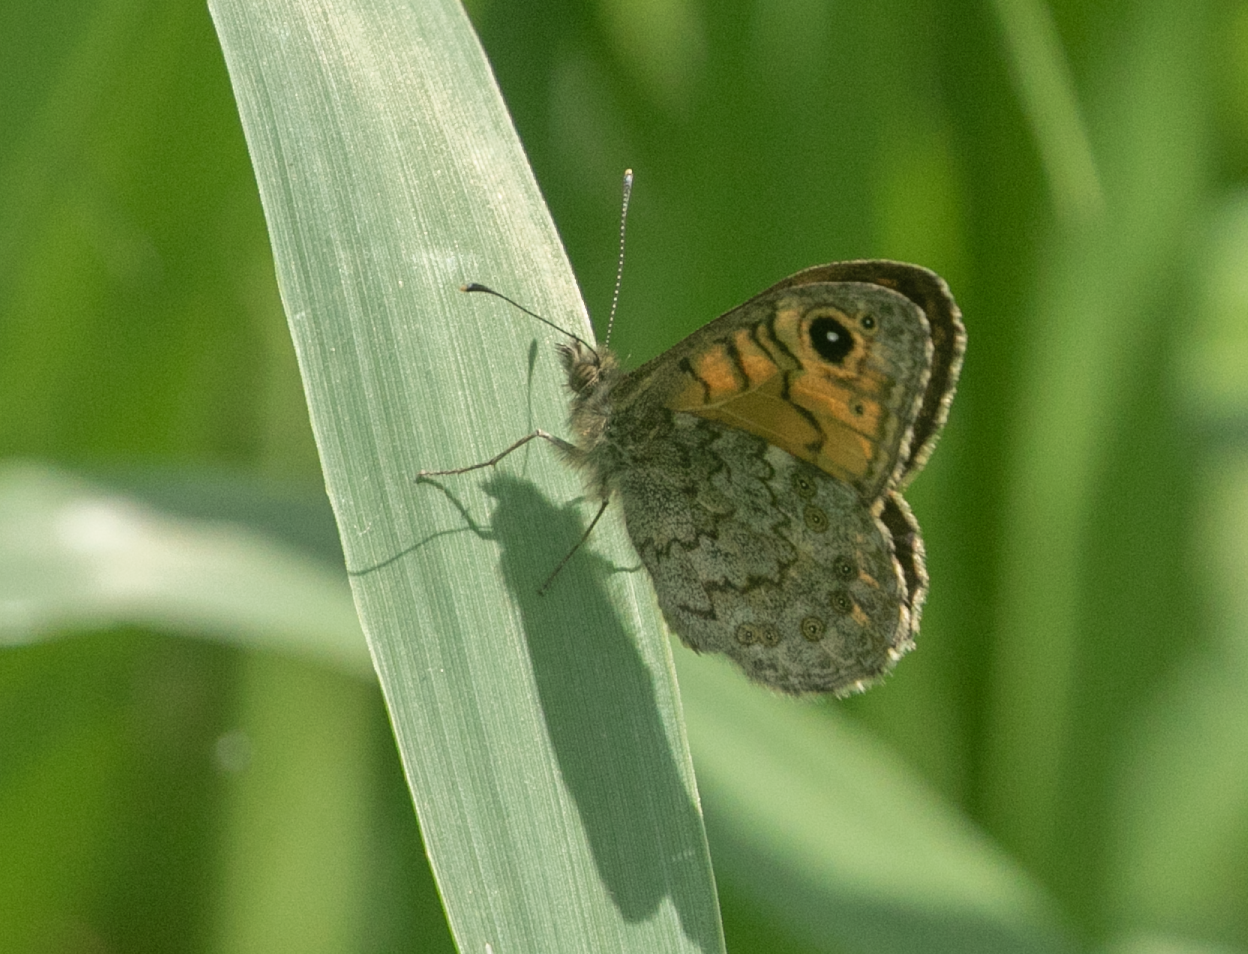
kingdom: Animalia
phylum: Arthropoda
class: Insecta
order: Lepidoptera
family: Nymphalidae
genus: Pararge
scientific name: Pararge Lasiommata megera
